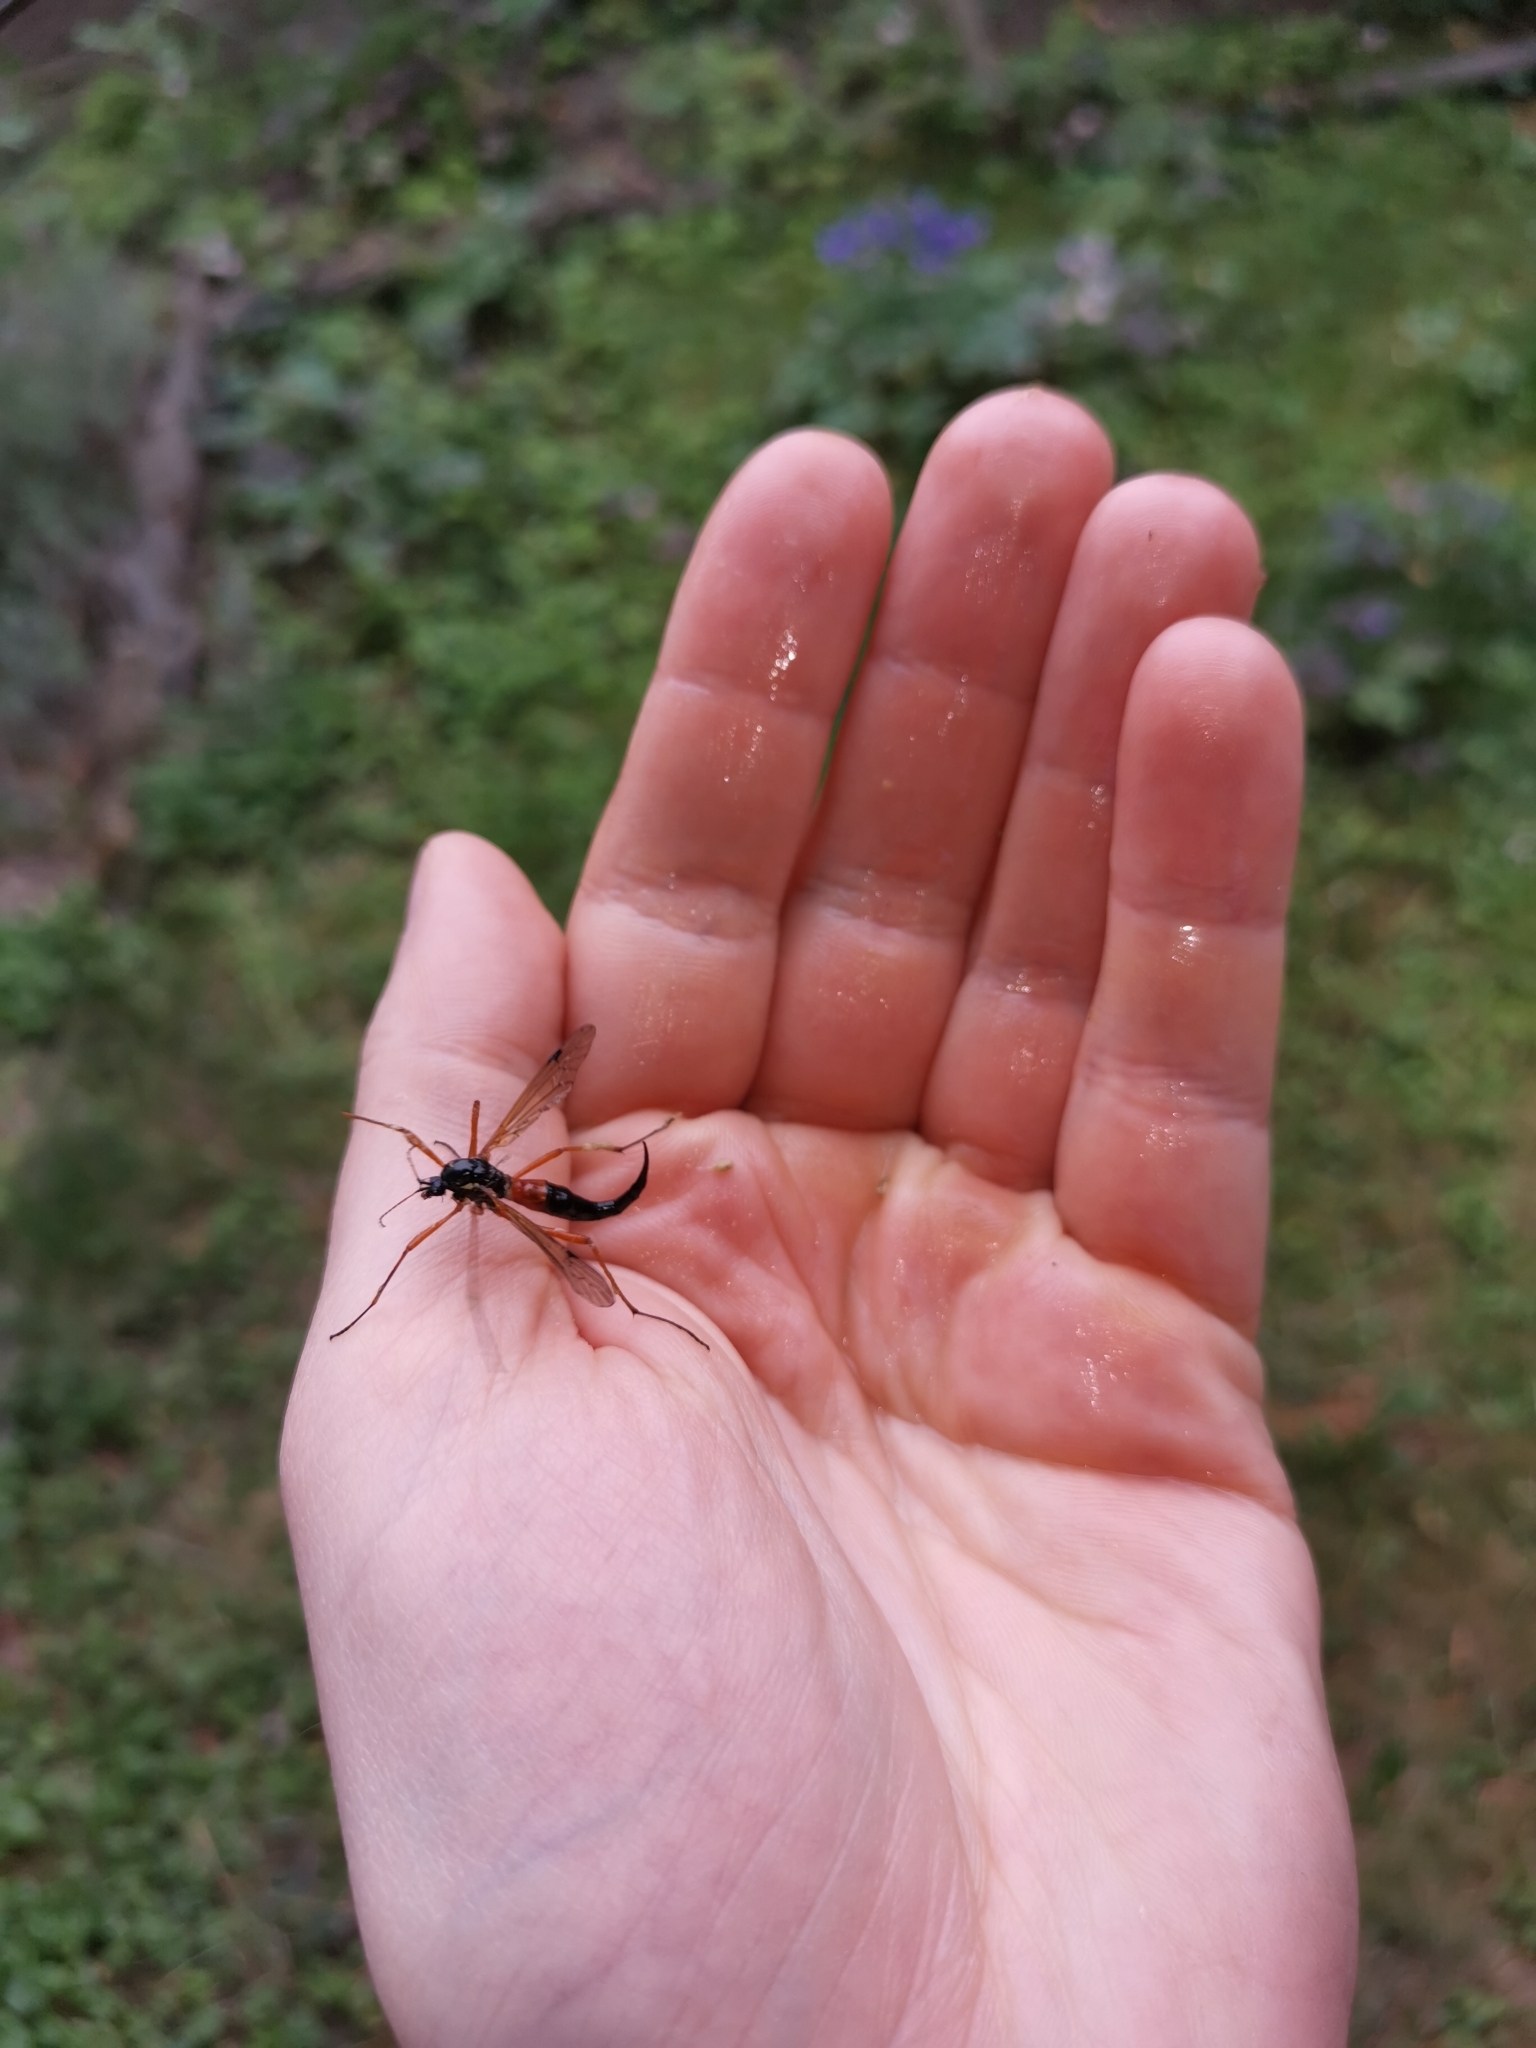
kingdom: Animalia
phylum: Arthropoda
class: Insecta
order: Diptera
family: Tipulidae
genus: Tanyptera
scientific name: Tanyptera atrata
